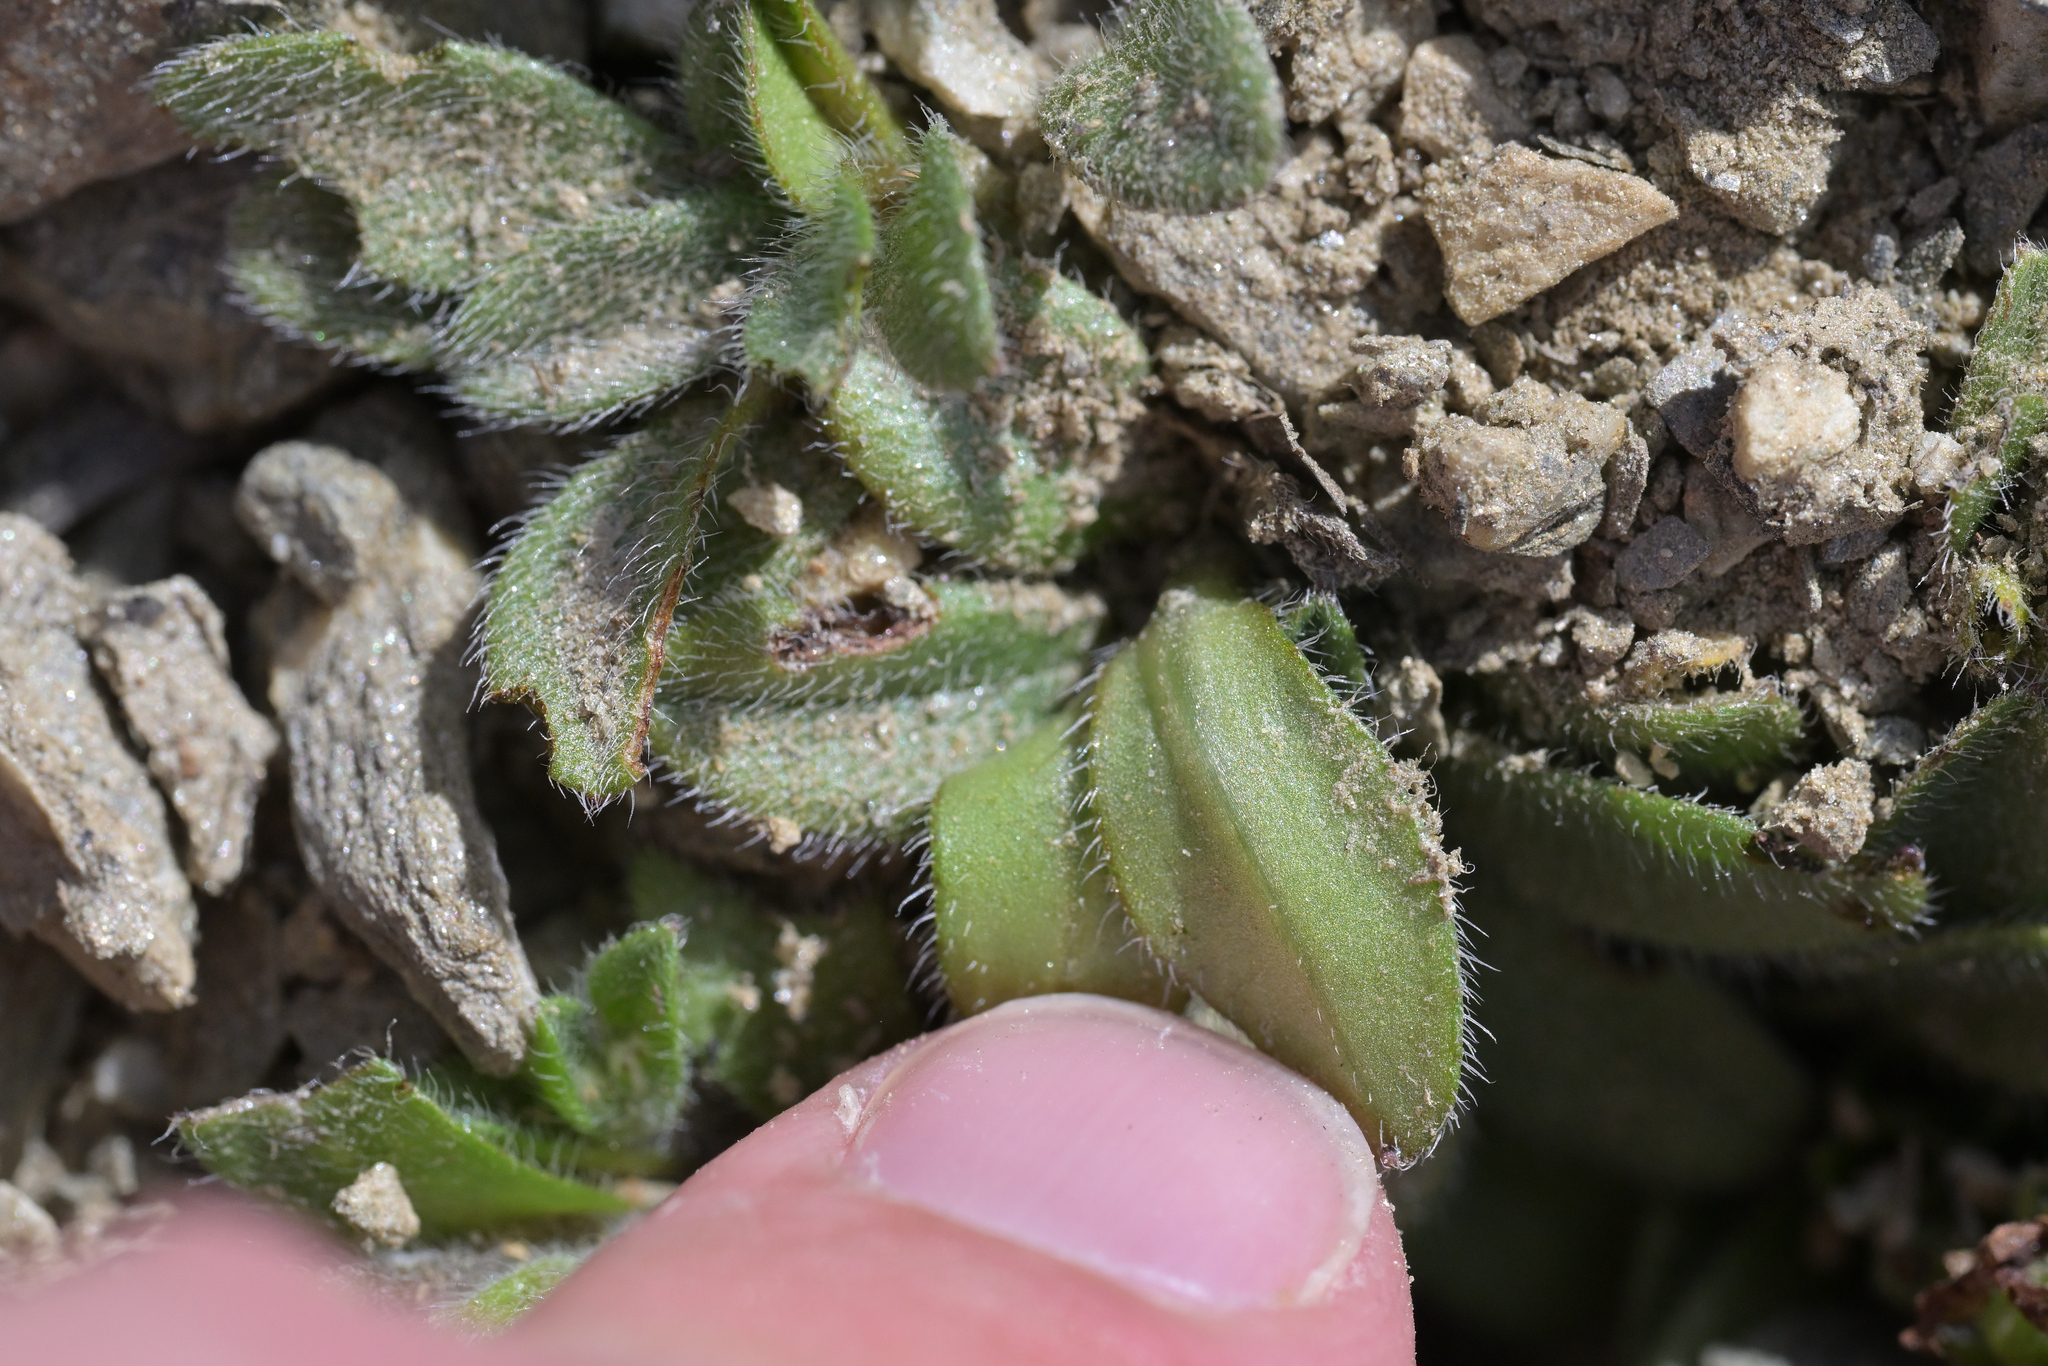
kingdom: Plantae
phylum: Tracheophyta
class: Magnoliopsida
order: Boraginales
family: Boraginaceae
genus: Myosotis
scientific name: Myosotis lyallii
